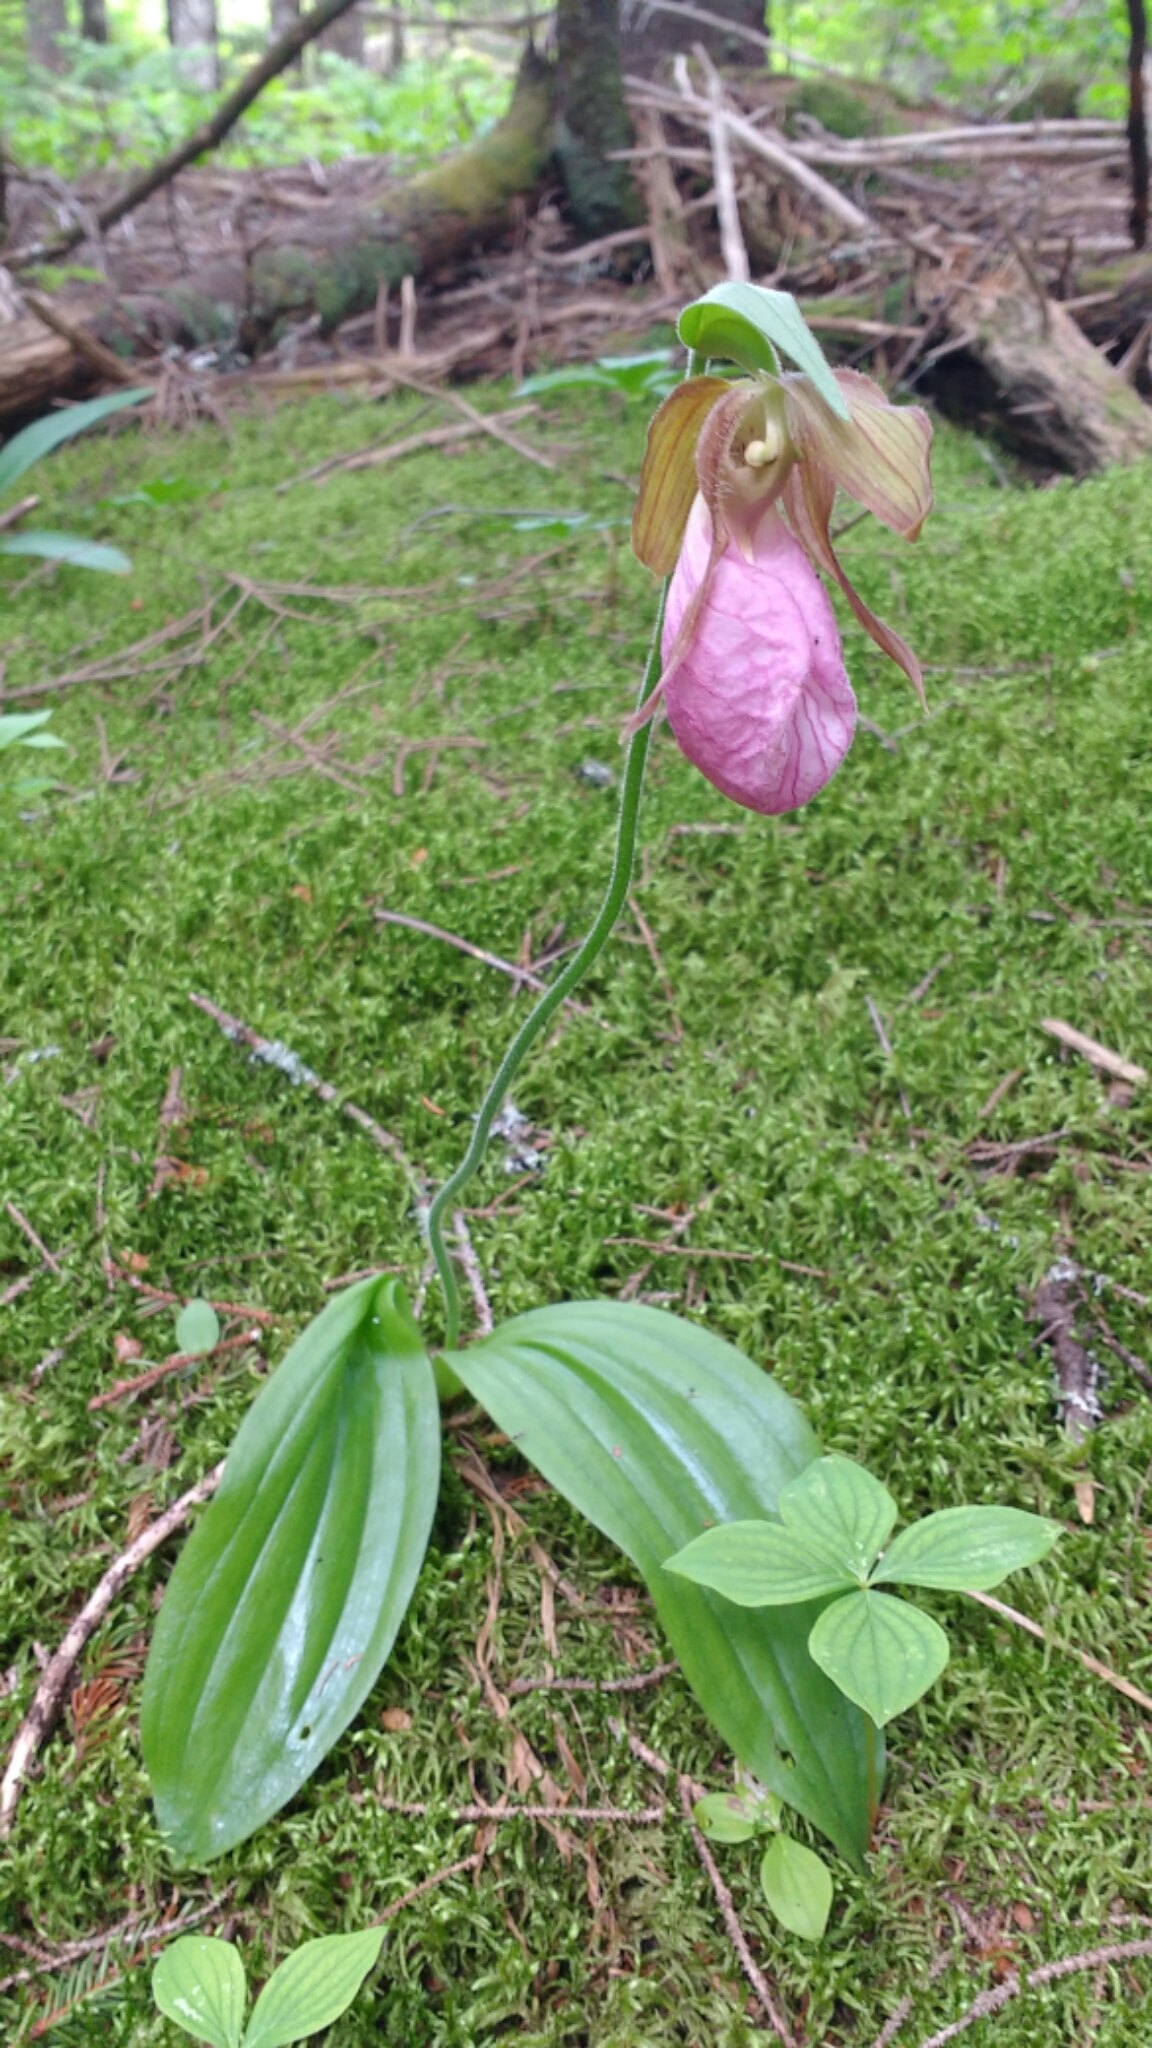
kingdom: Plantae
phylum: Tracheophyta
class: Liliopsida
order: Asparagales
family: Orchidaceae
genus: Cypripedium
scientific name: Cypripedium acaule
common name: Pink lady's-slipper
